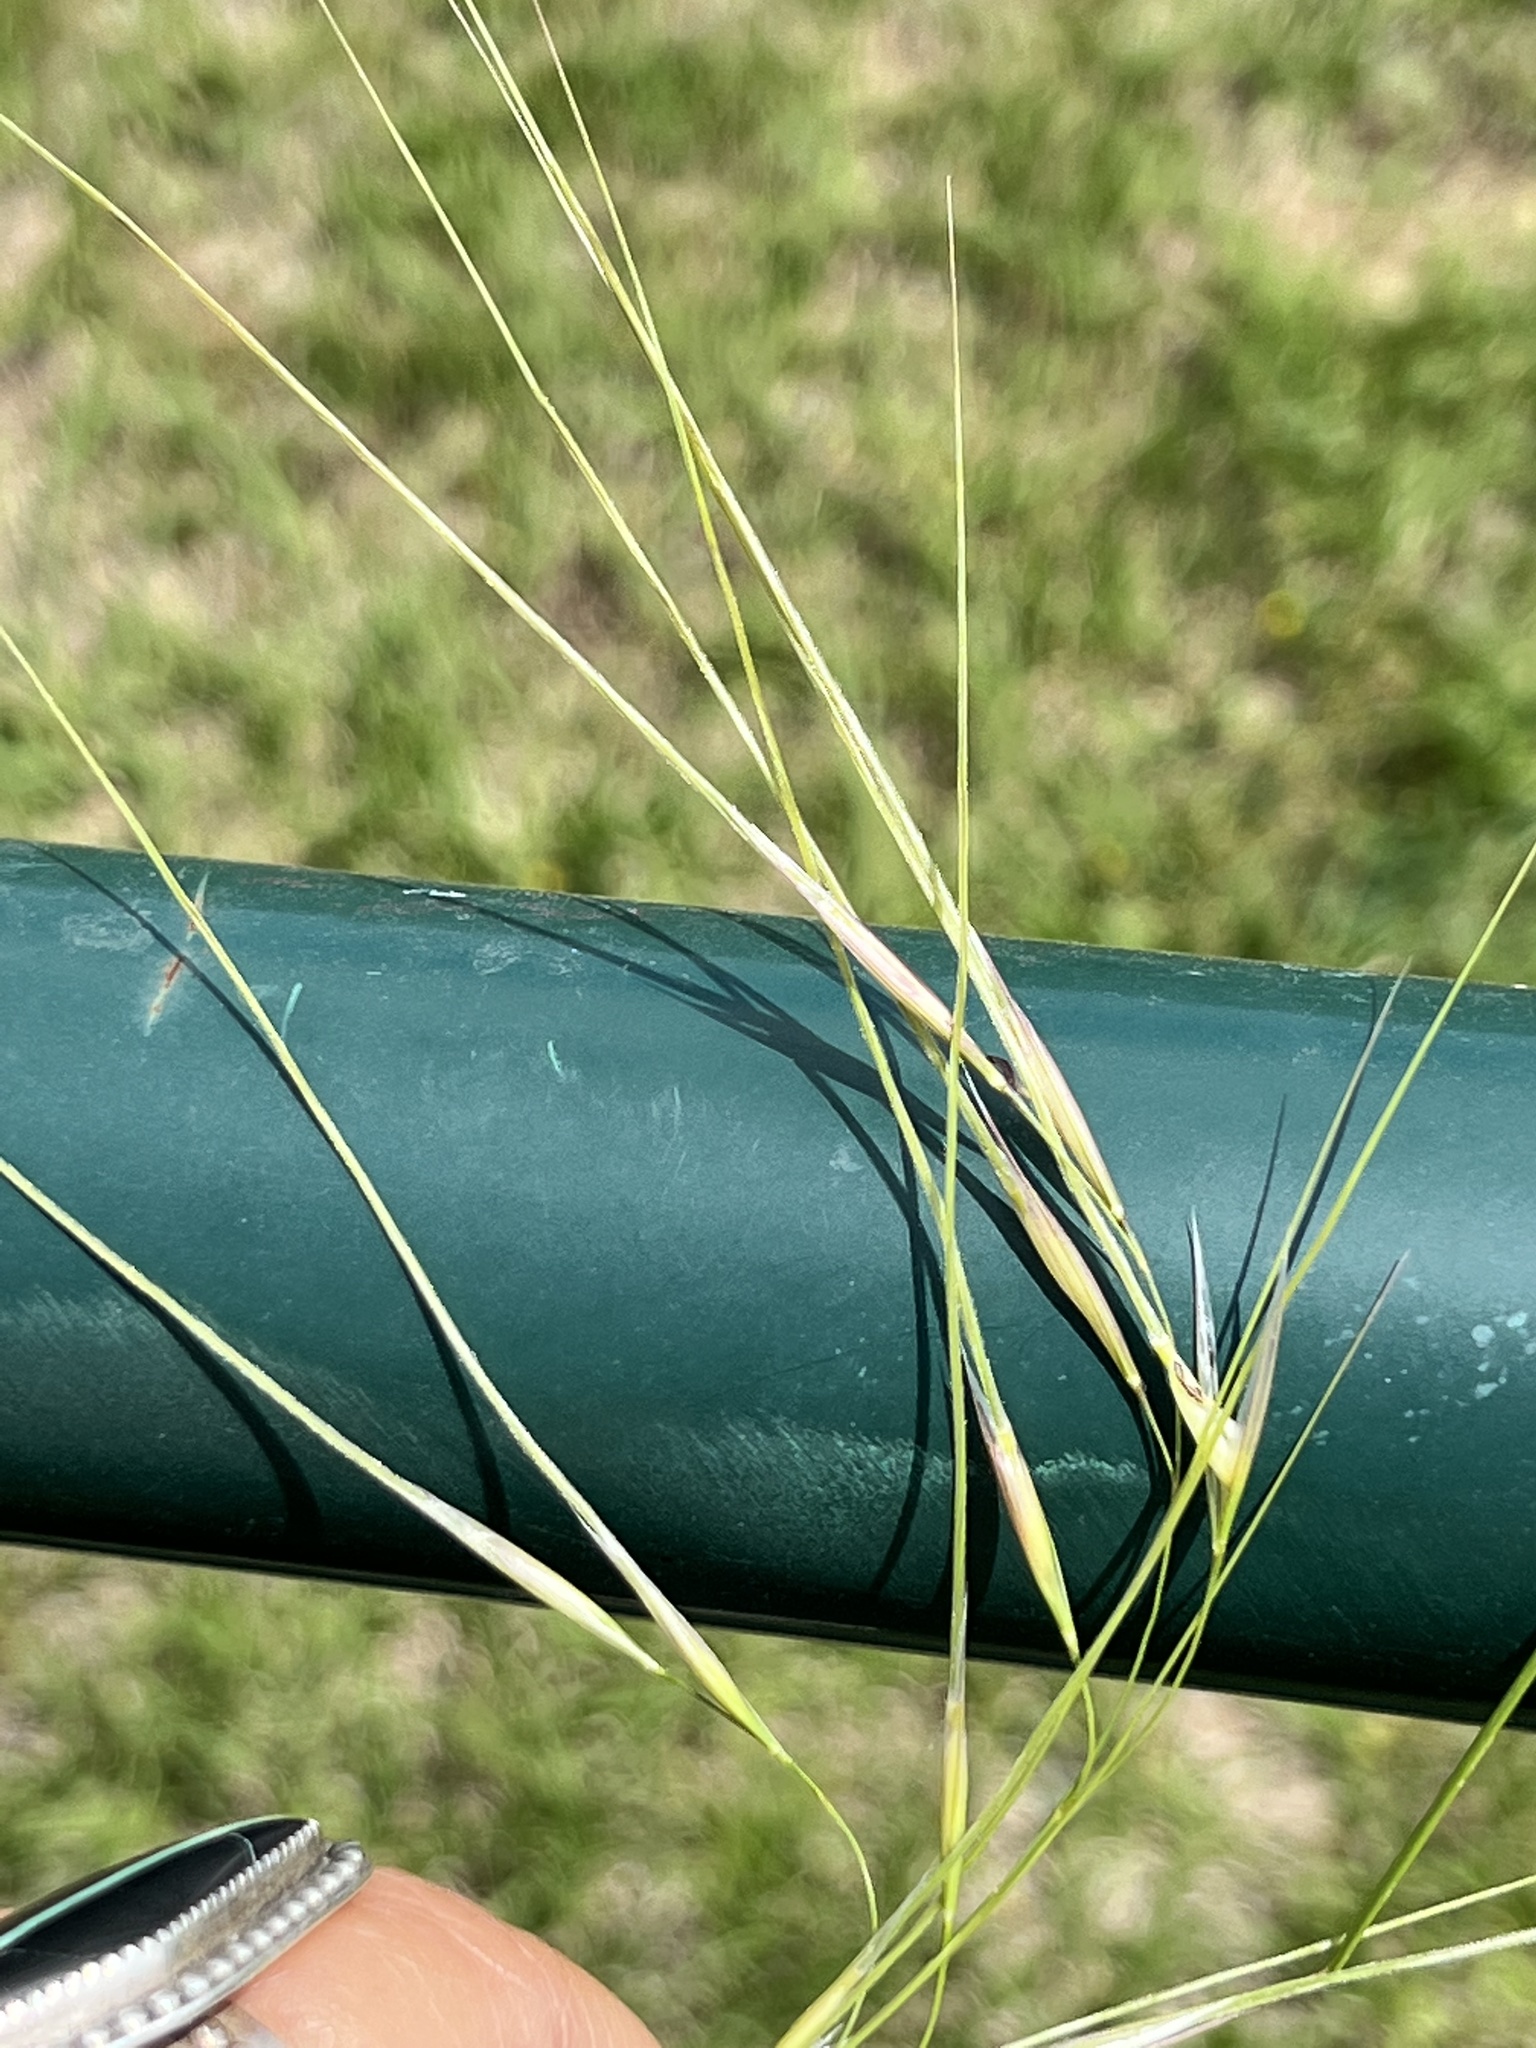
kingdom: Plantae
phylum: Tracheophyta
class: Liliopsida
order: Poales
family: Poaceae
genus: Nassella
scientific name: Nassella leucotricha
